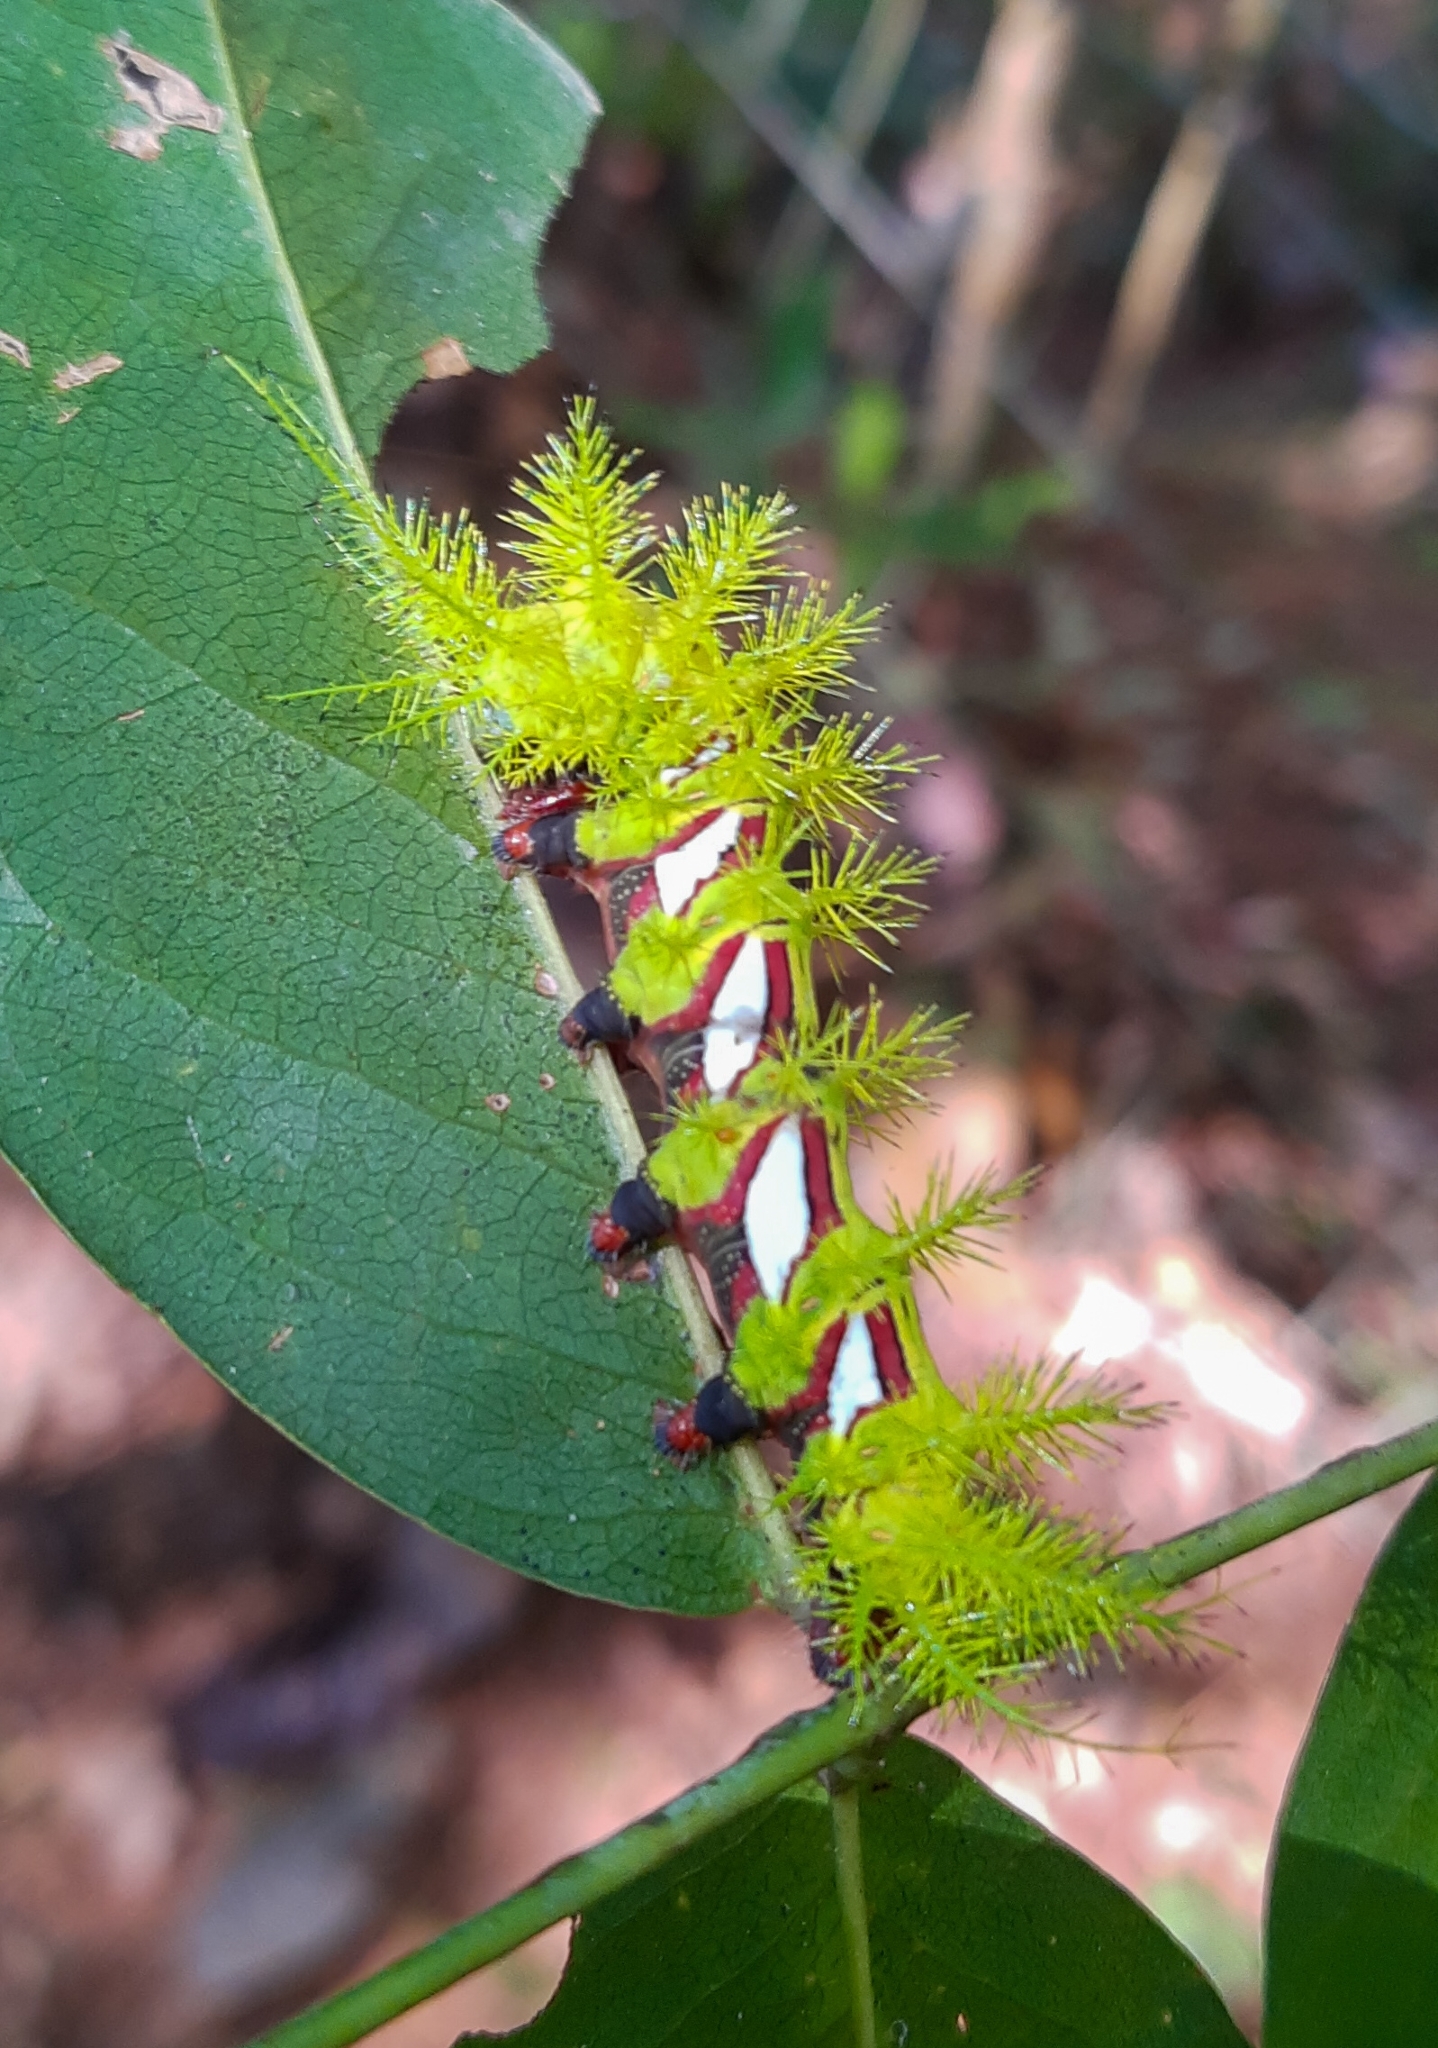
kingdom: Animalia
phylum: Arthropoda
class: Insecta
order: Lepidoptera
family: Saturniidae
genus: Automeris
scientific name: Automeris melanops
